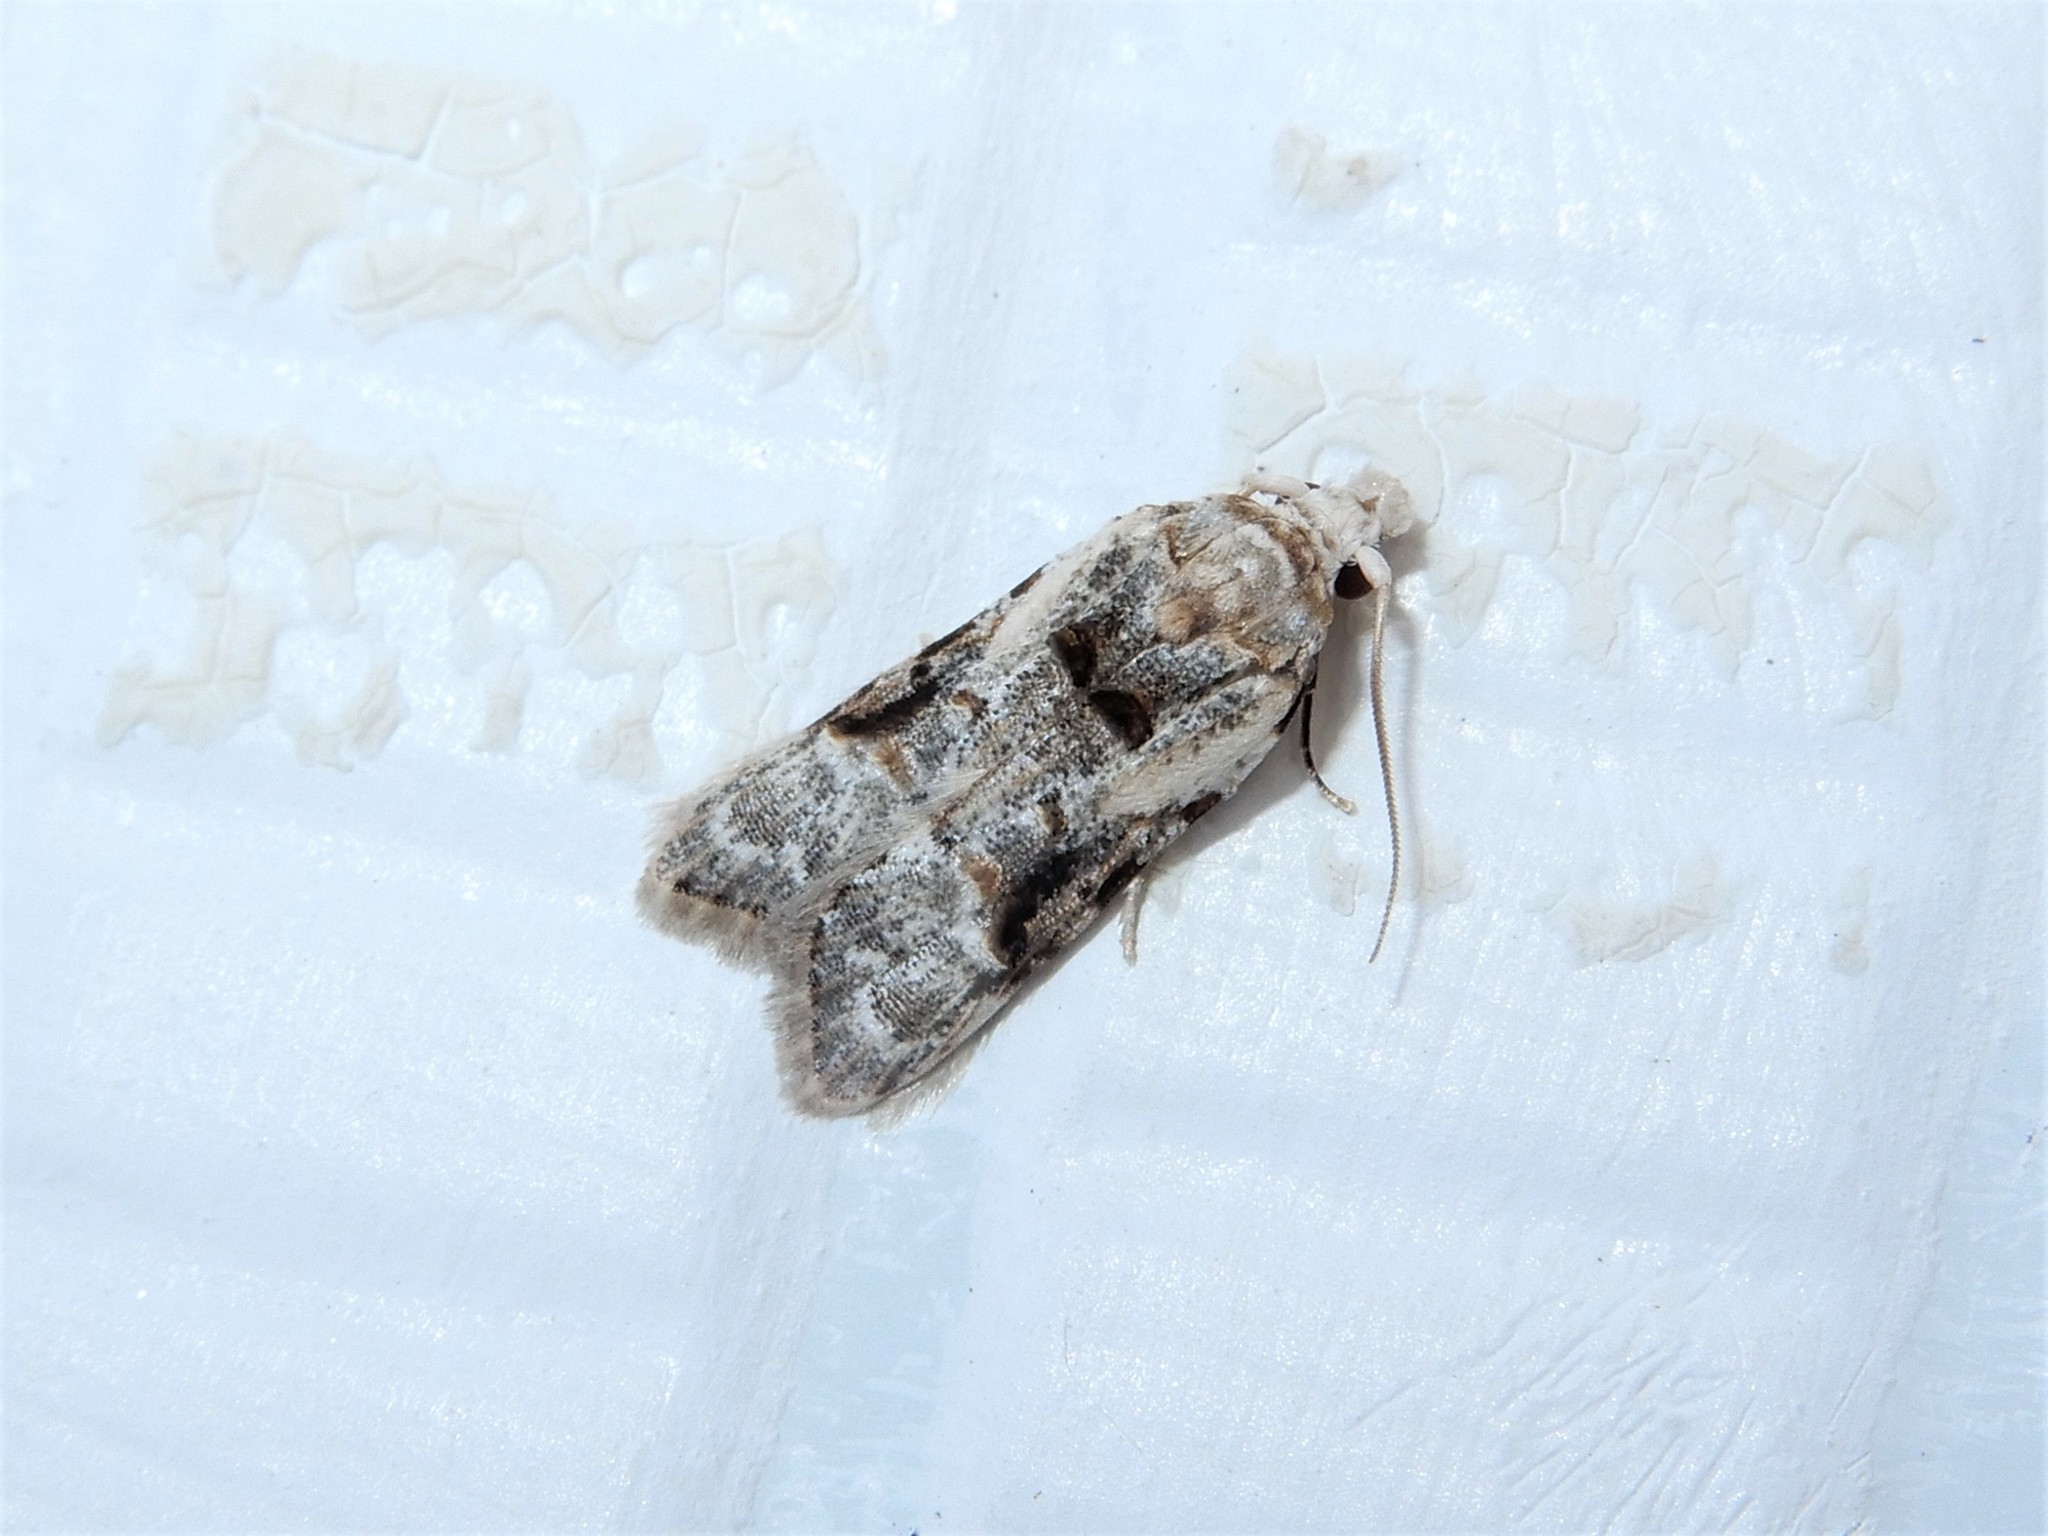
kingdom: Animalia
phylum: Arthropoda
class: Insecta
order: Lepidoptera
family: Carposinidae
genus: Coscinoptycha
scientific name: Coscinoptycha improbana
